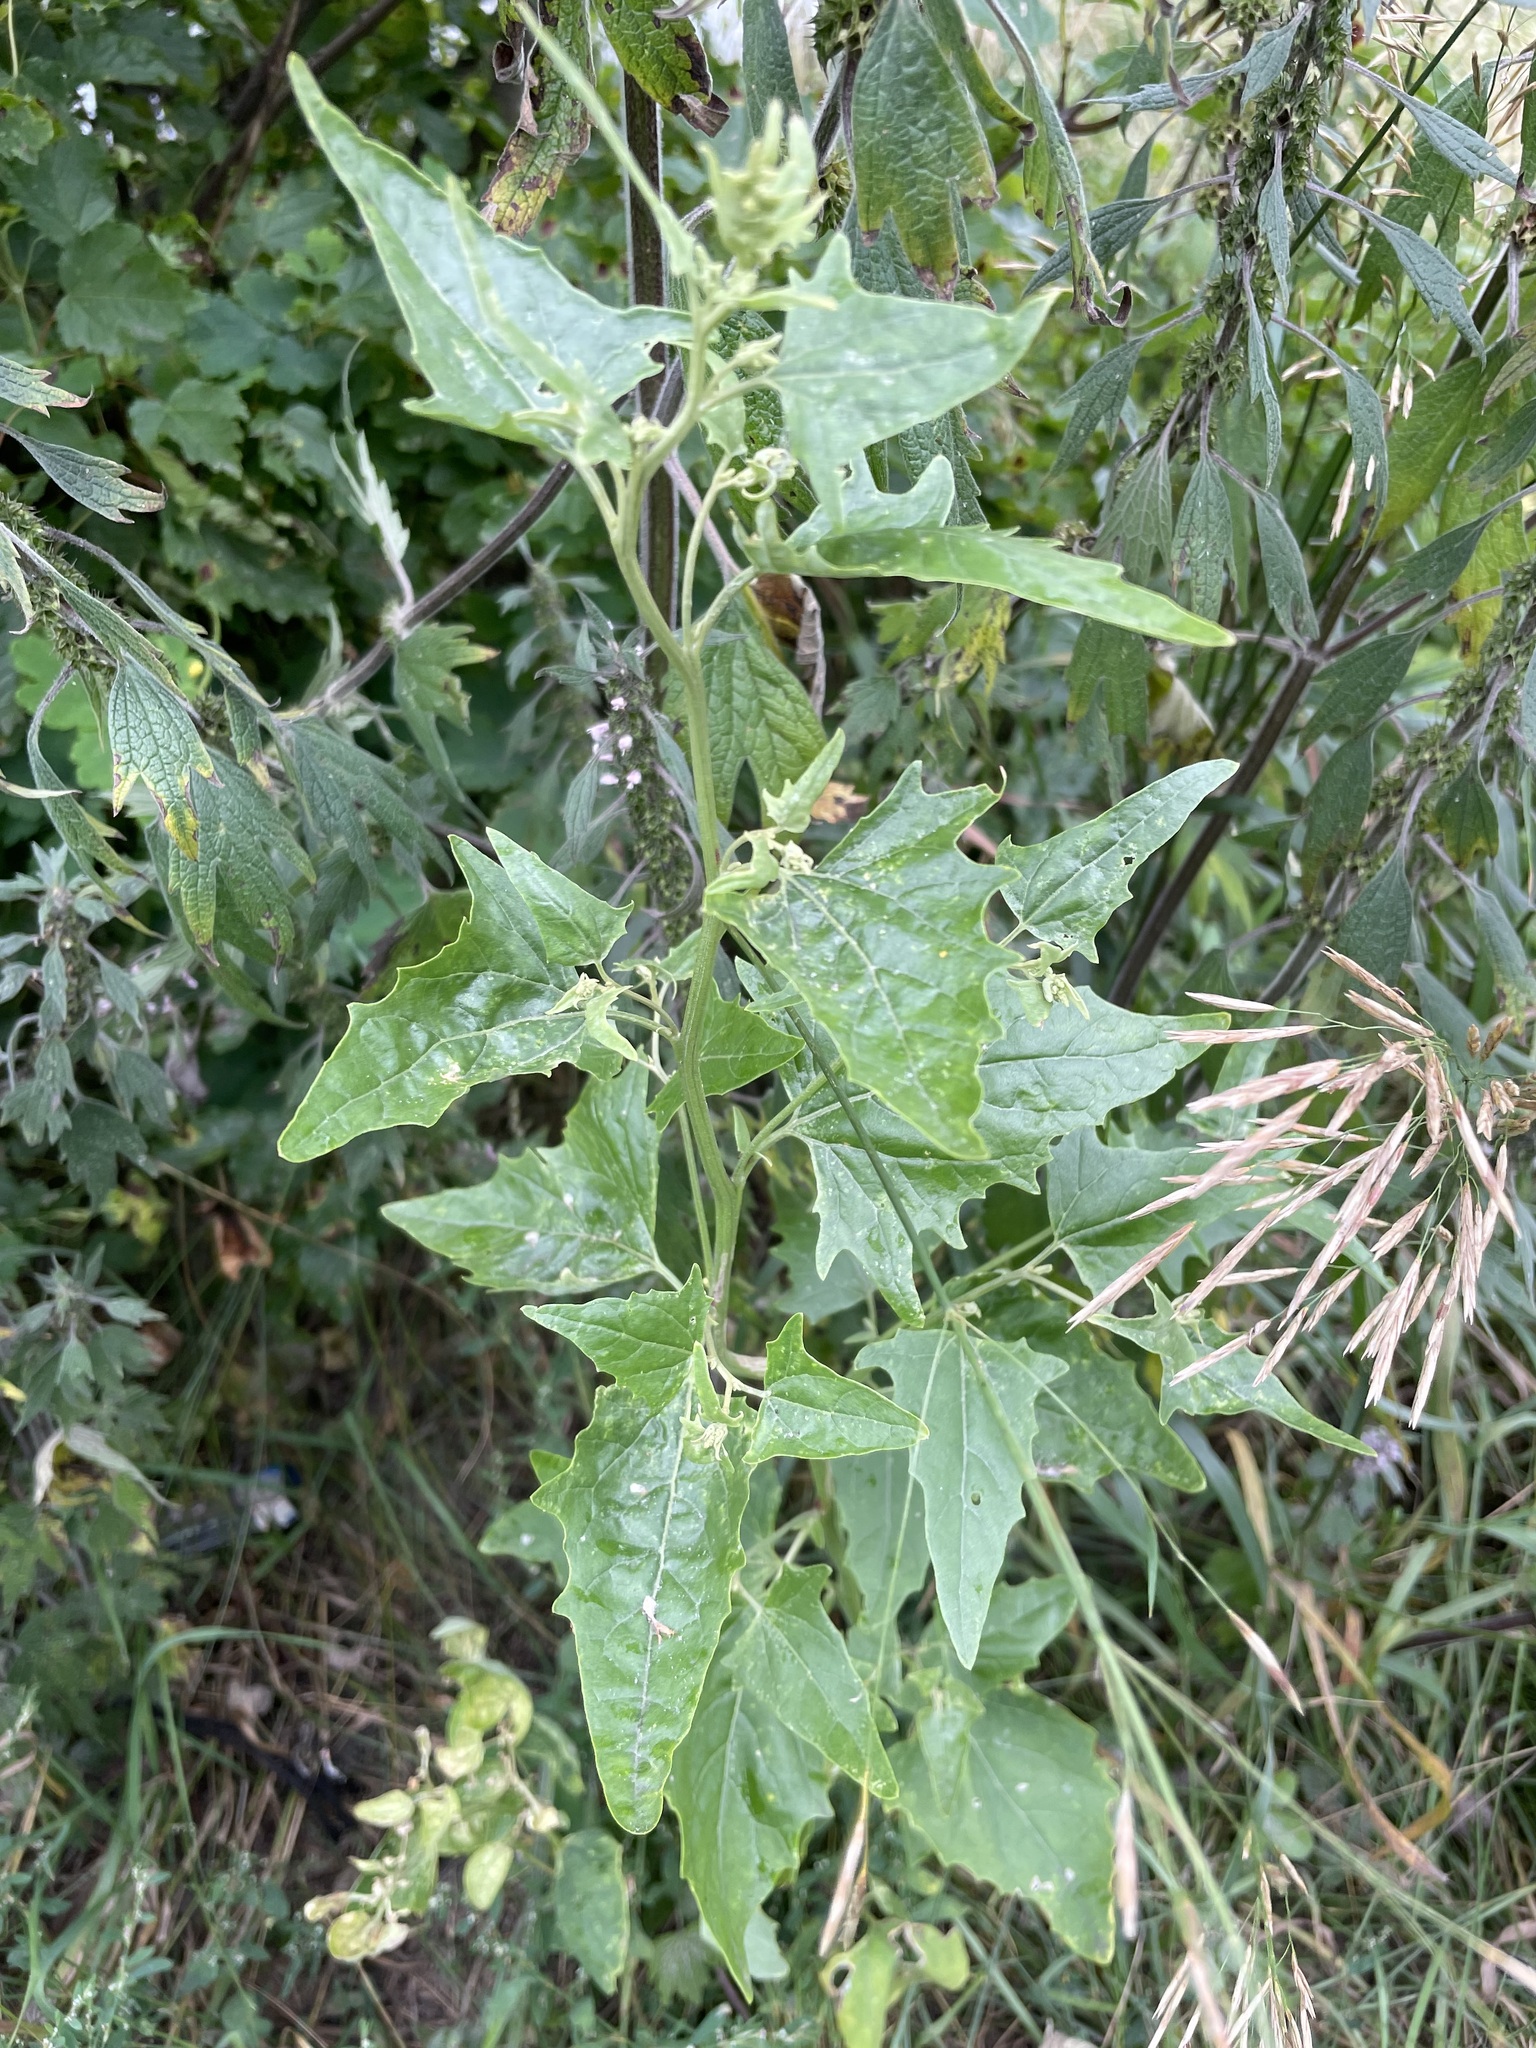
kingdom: Plantae
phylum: Tracheophyta
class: Magnoliopsida
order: Caryophyllales
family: Amaranthaceae
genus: Atriplex
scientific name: Atriplex sagittata
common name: Purple orache
